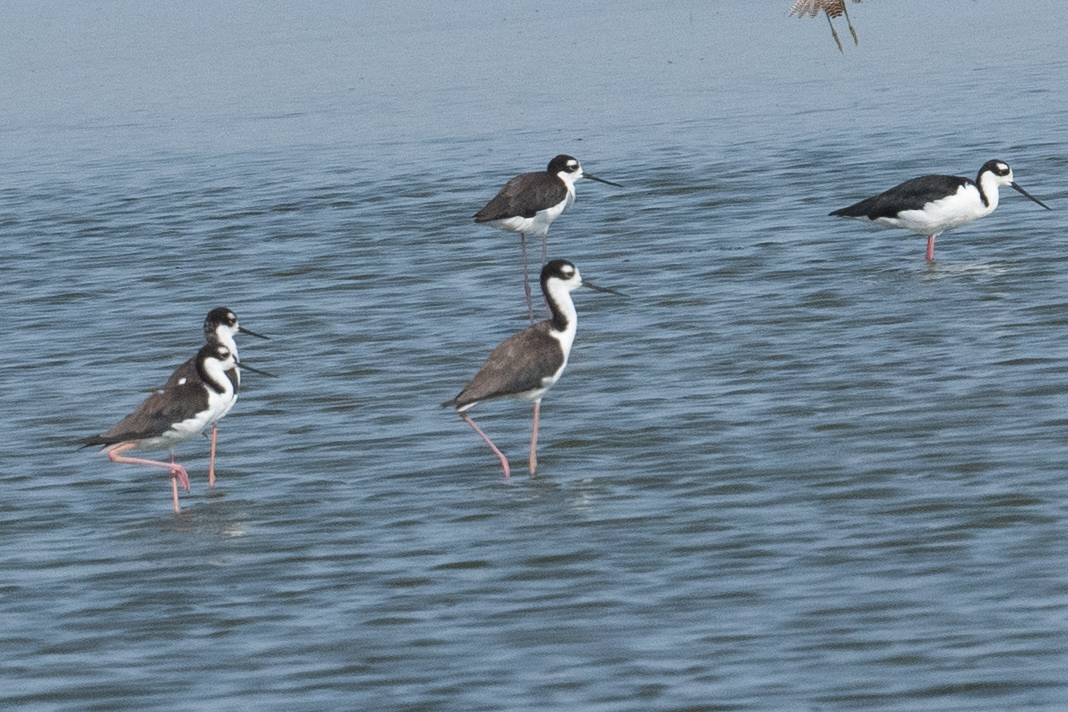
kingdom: Animalia
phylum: Chordata
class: Aves
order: Charadriiformes
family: Recurvirostridae
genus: Himantopus
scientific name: Himantopus mexicanus
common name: Black-necked stilt
